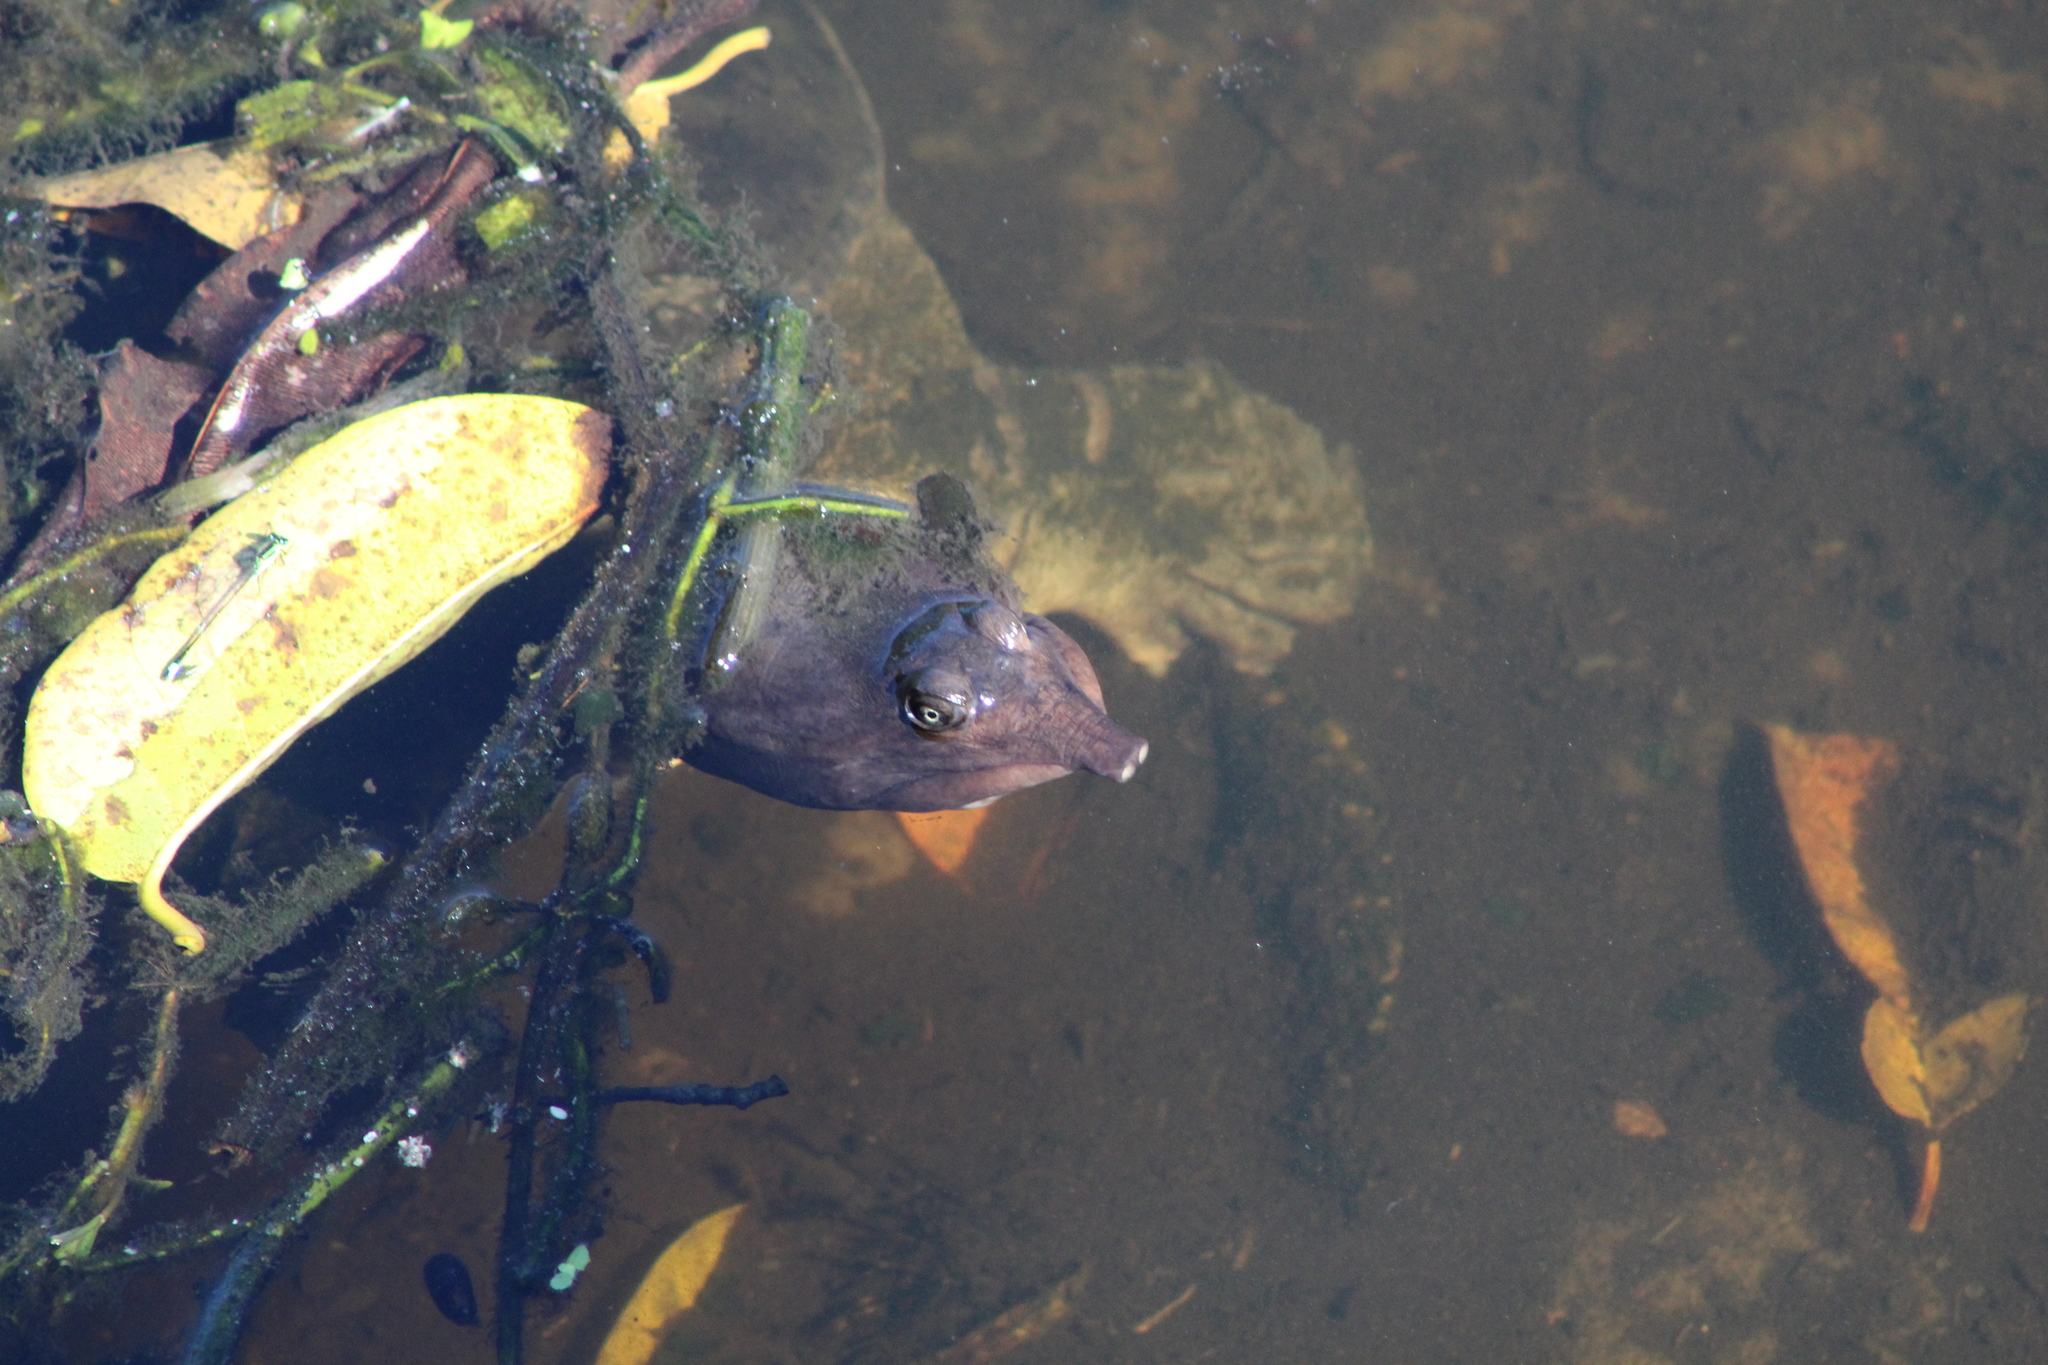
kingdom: Animalia
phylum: Chordata
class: Testudines
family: Trionychidae
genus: Apalone
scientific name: Apalone ferox
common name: Florida softshell turtle
